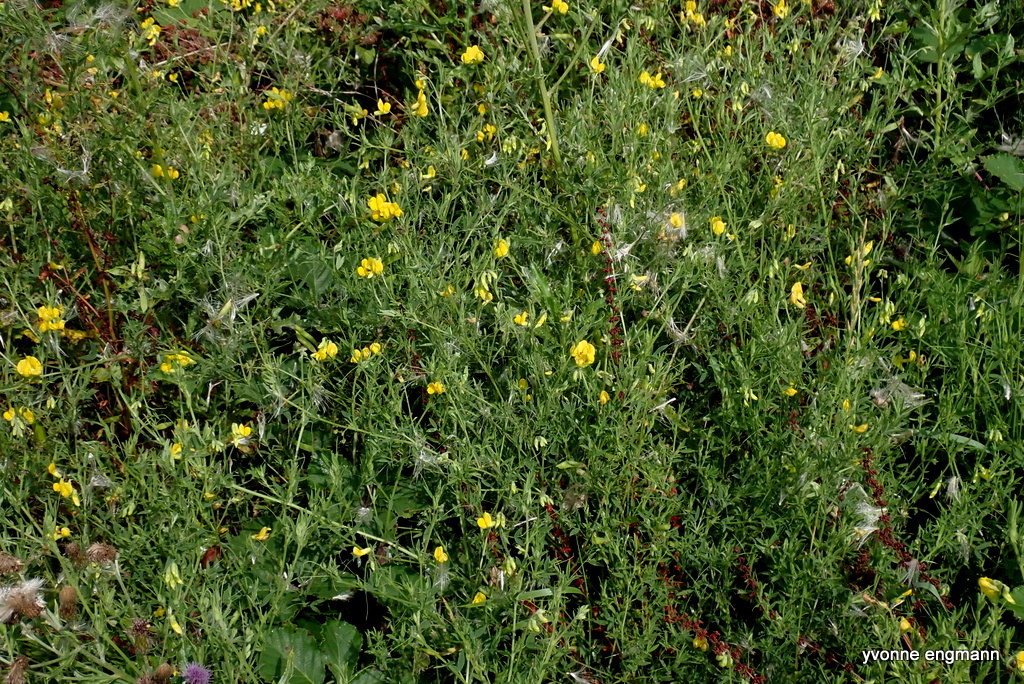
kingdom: Plantae
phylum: Tracheophyta
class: Magnoliopsida
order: Fabales
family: Fabaceae
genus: Lathyrus
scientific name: Lathyrus pratensis
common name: Meadow vetchling
